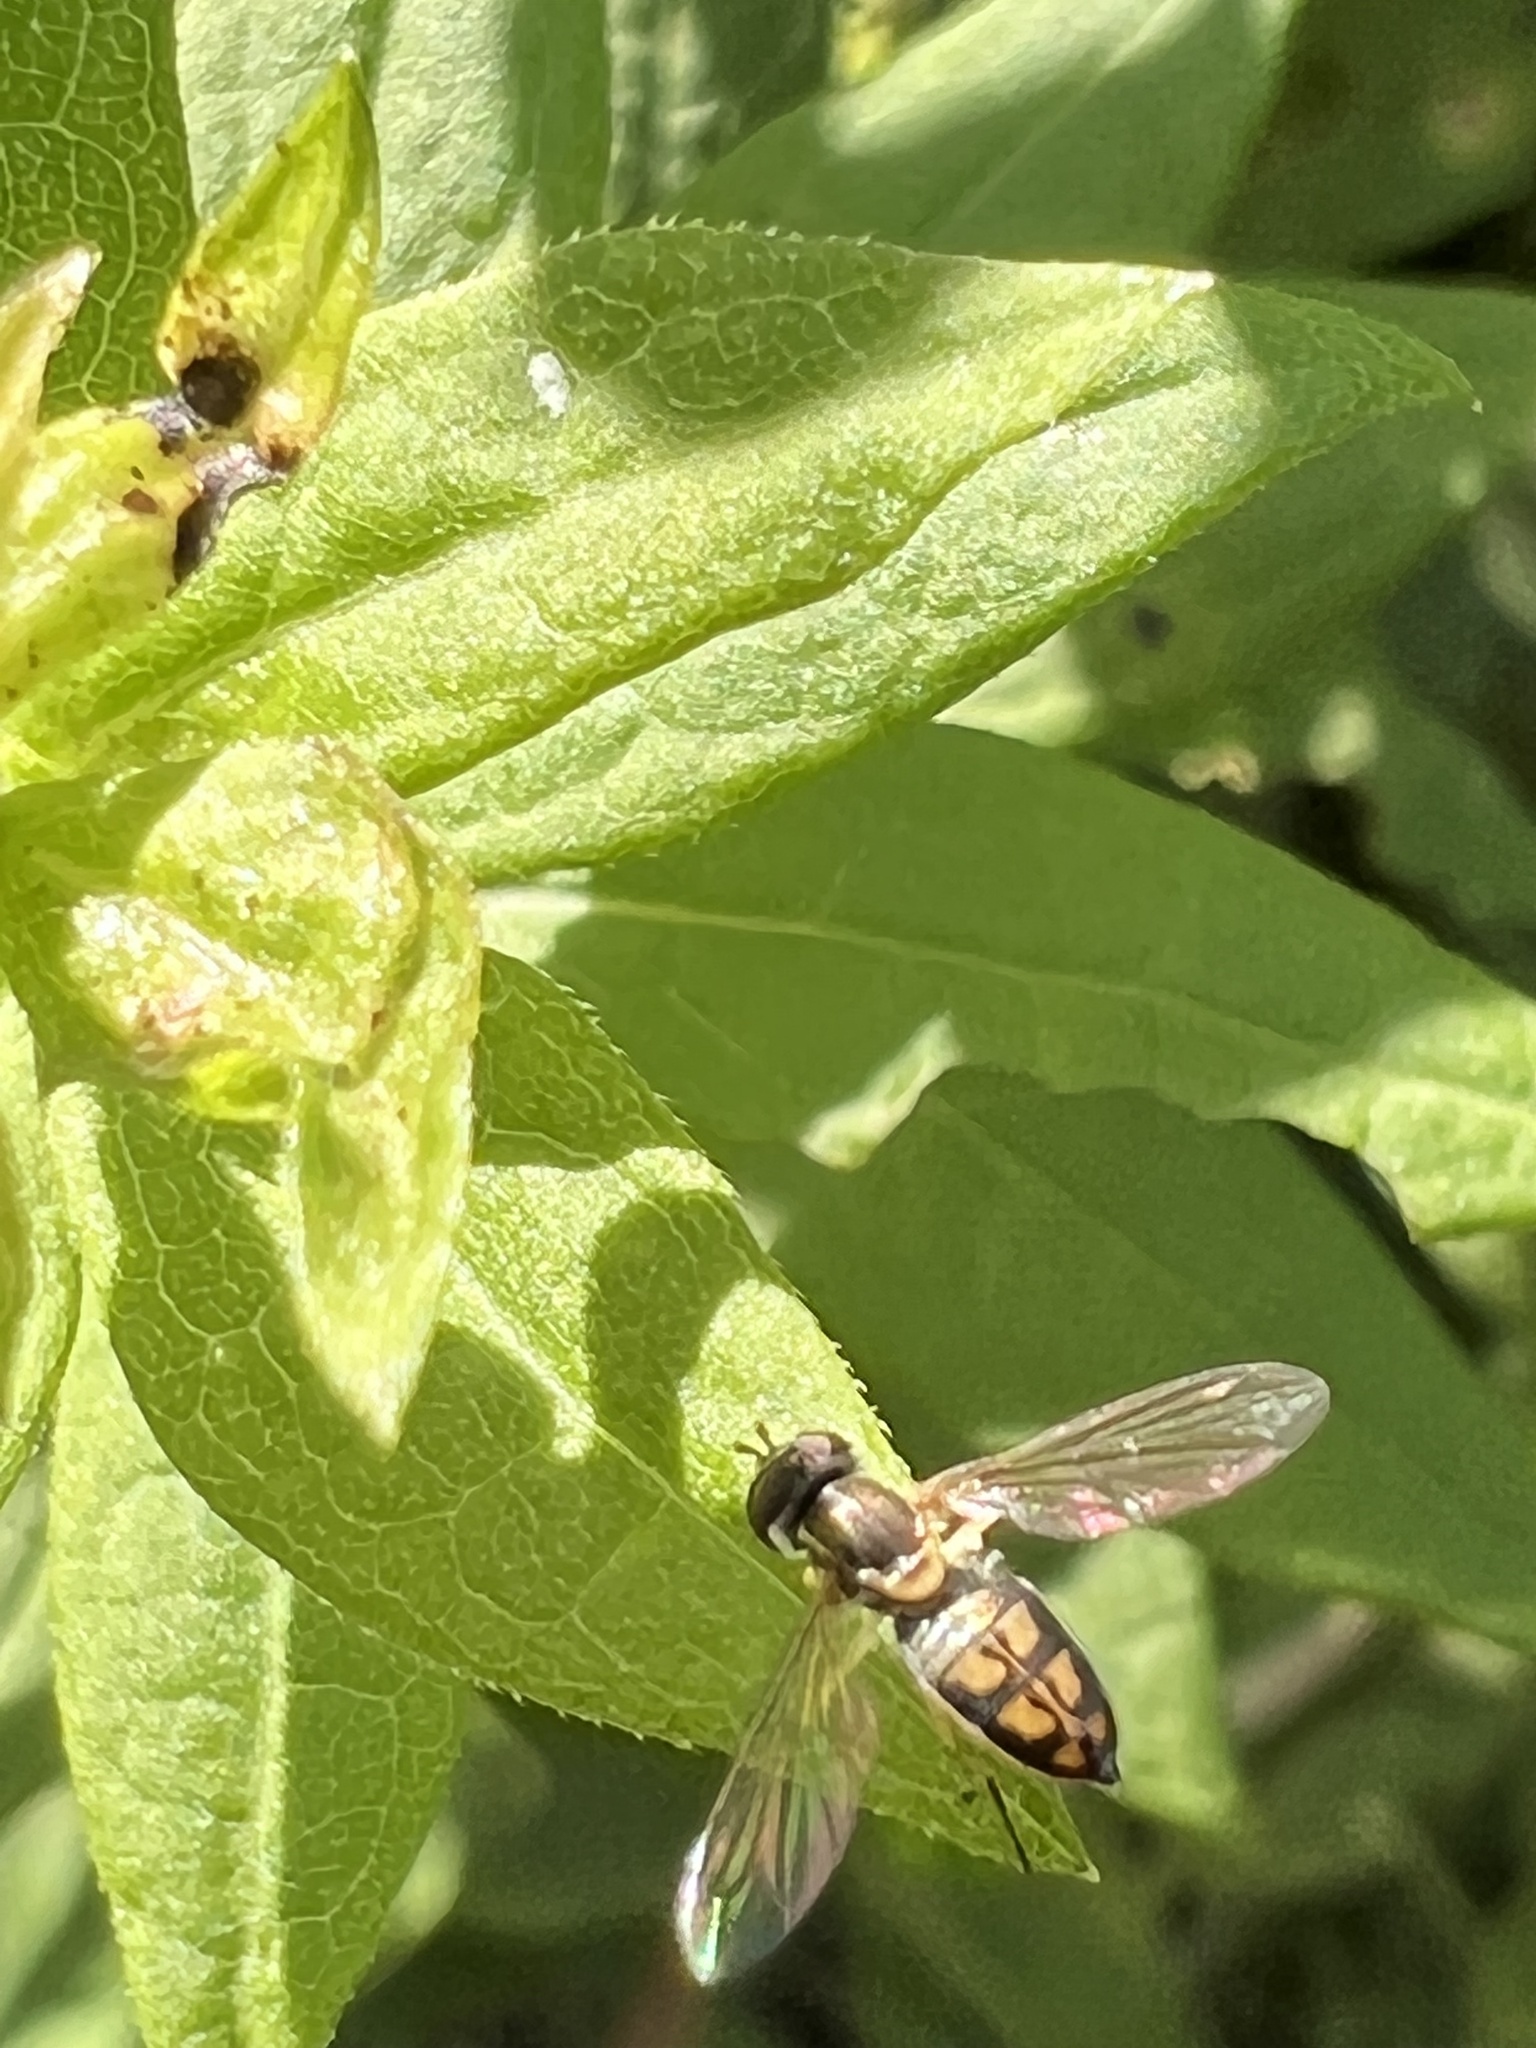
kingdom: Animalia
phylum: Arthropoda
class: Insecta
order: Diptera
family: Syrphidae
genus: Toxomerus
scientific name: Toxomerus marginatus
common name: Syrphid fly
